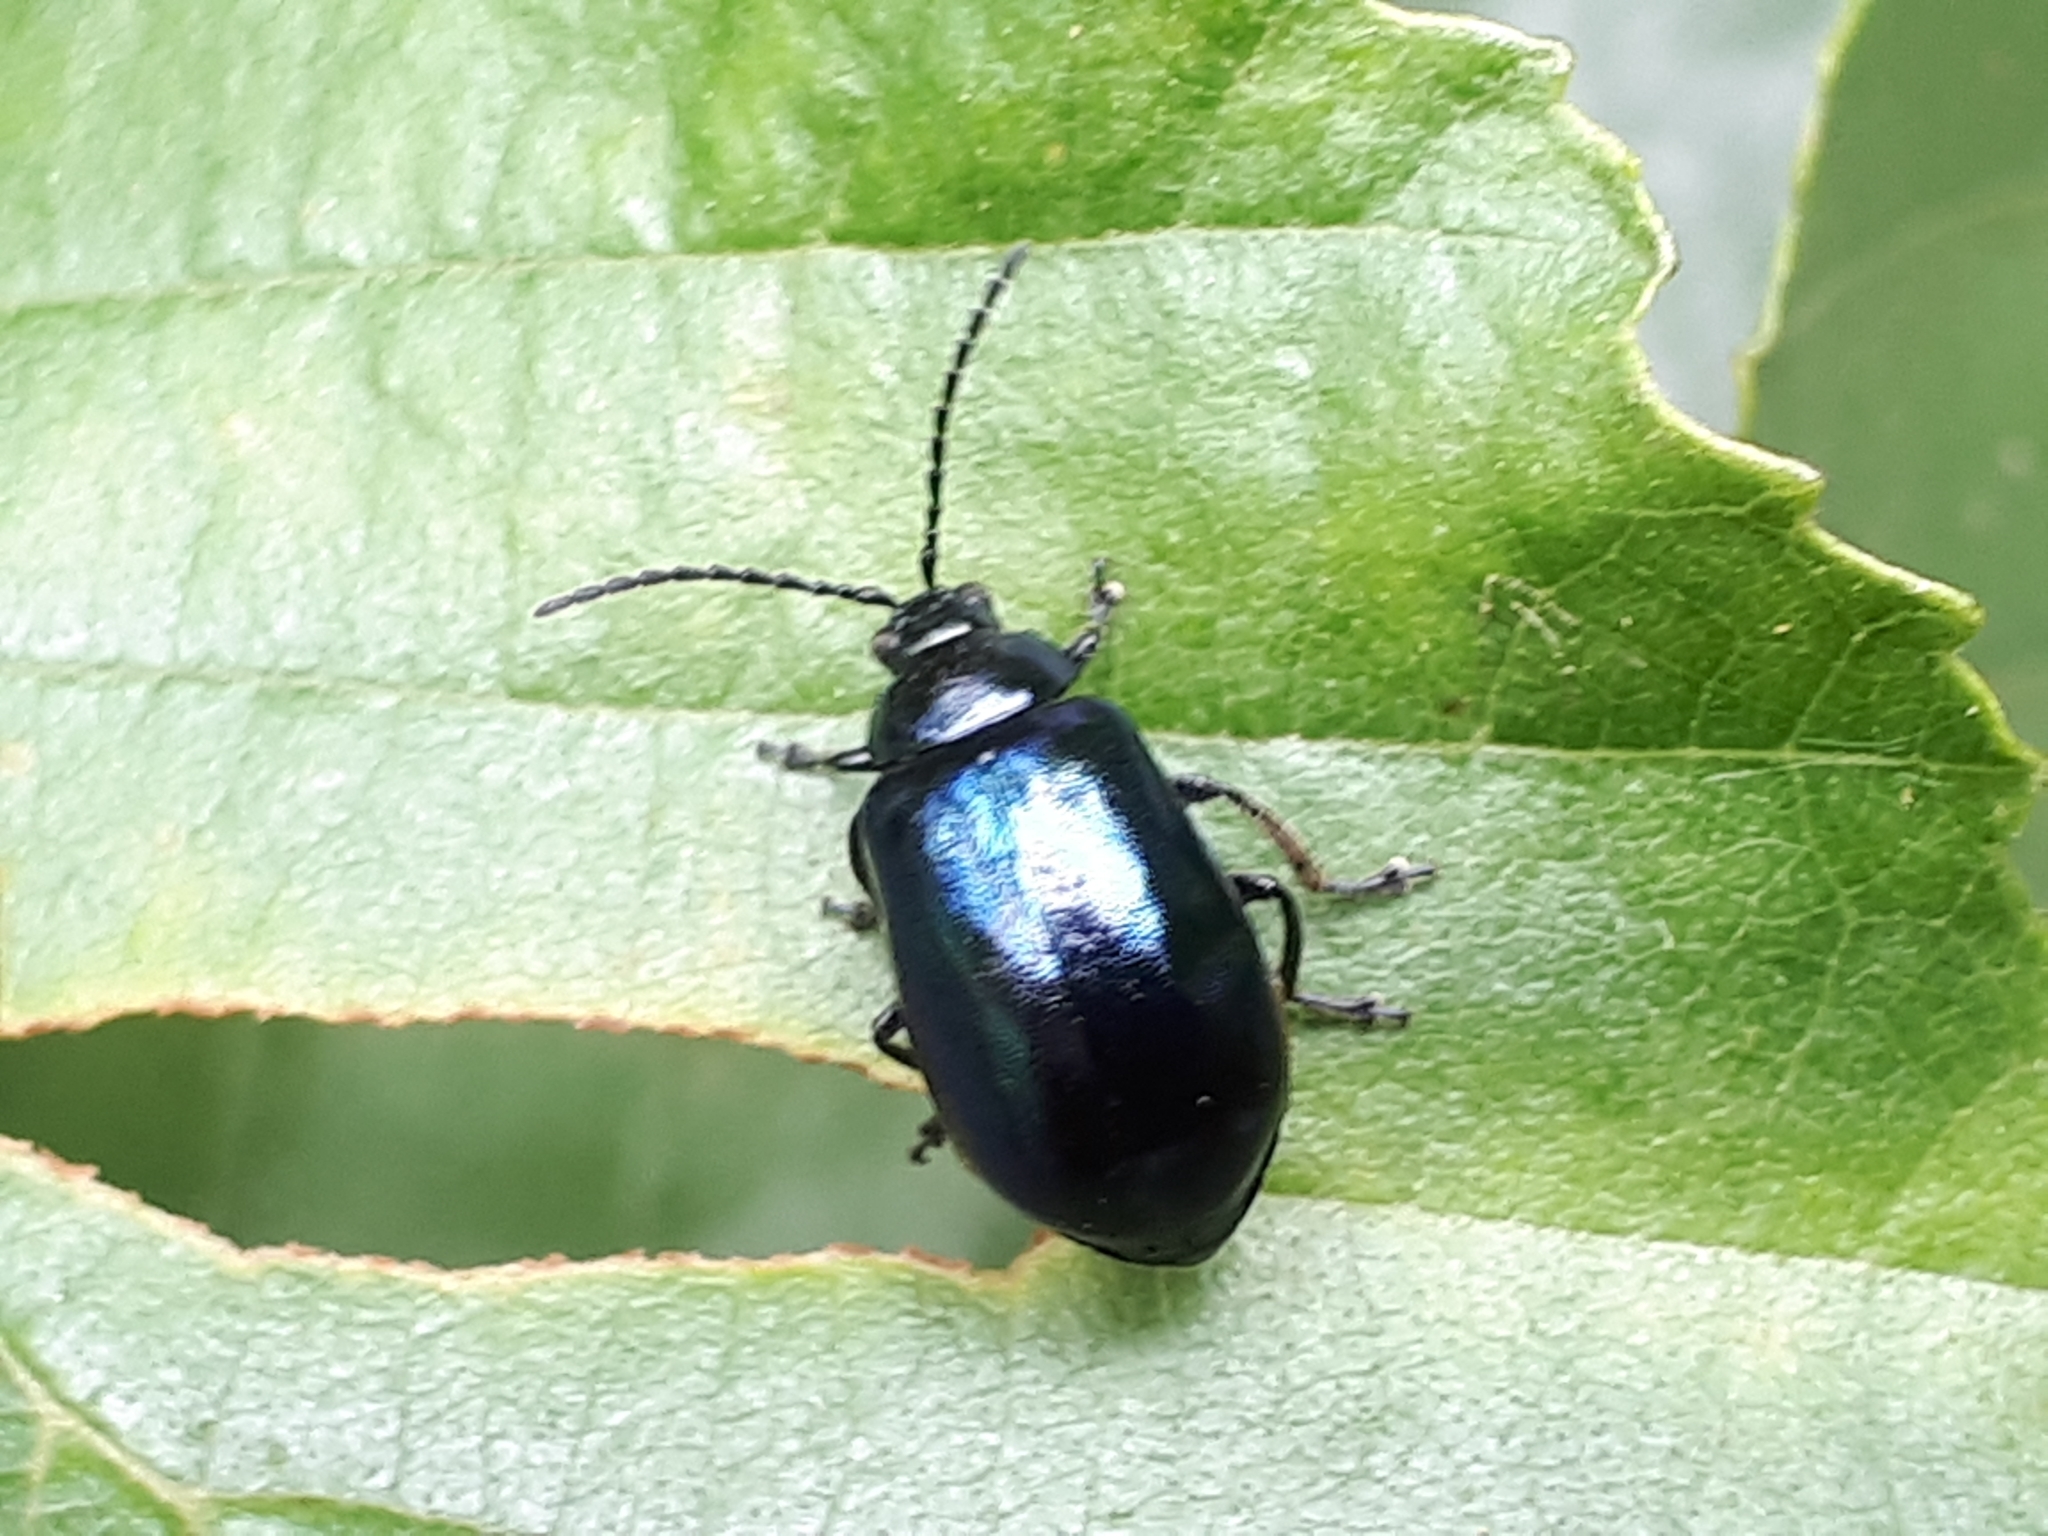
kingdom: Animalia
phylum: Arthropoda
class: Insecta
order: Coleoptera
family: Chrysomelidae
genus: Agelastica
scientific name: Agelastica alni
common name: Alder leaf beetle
